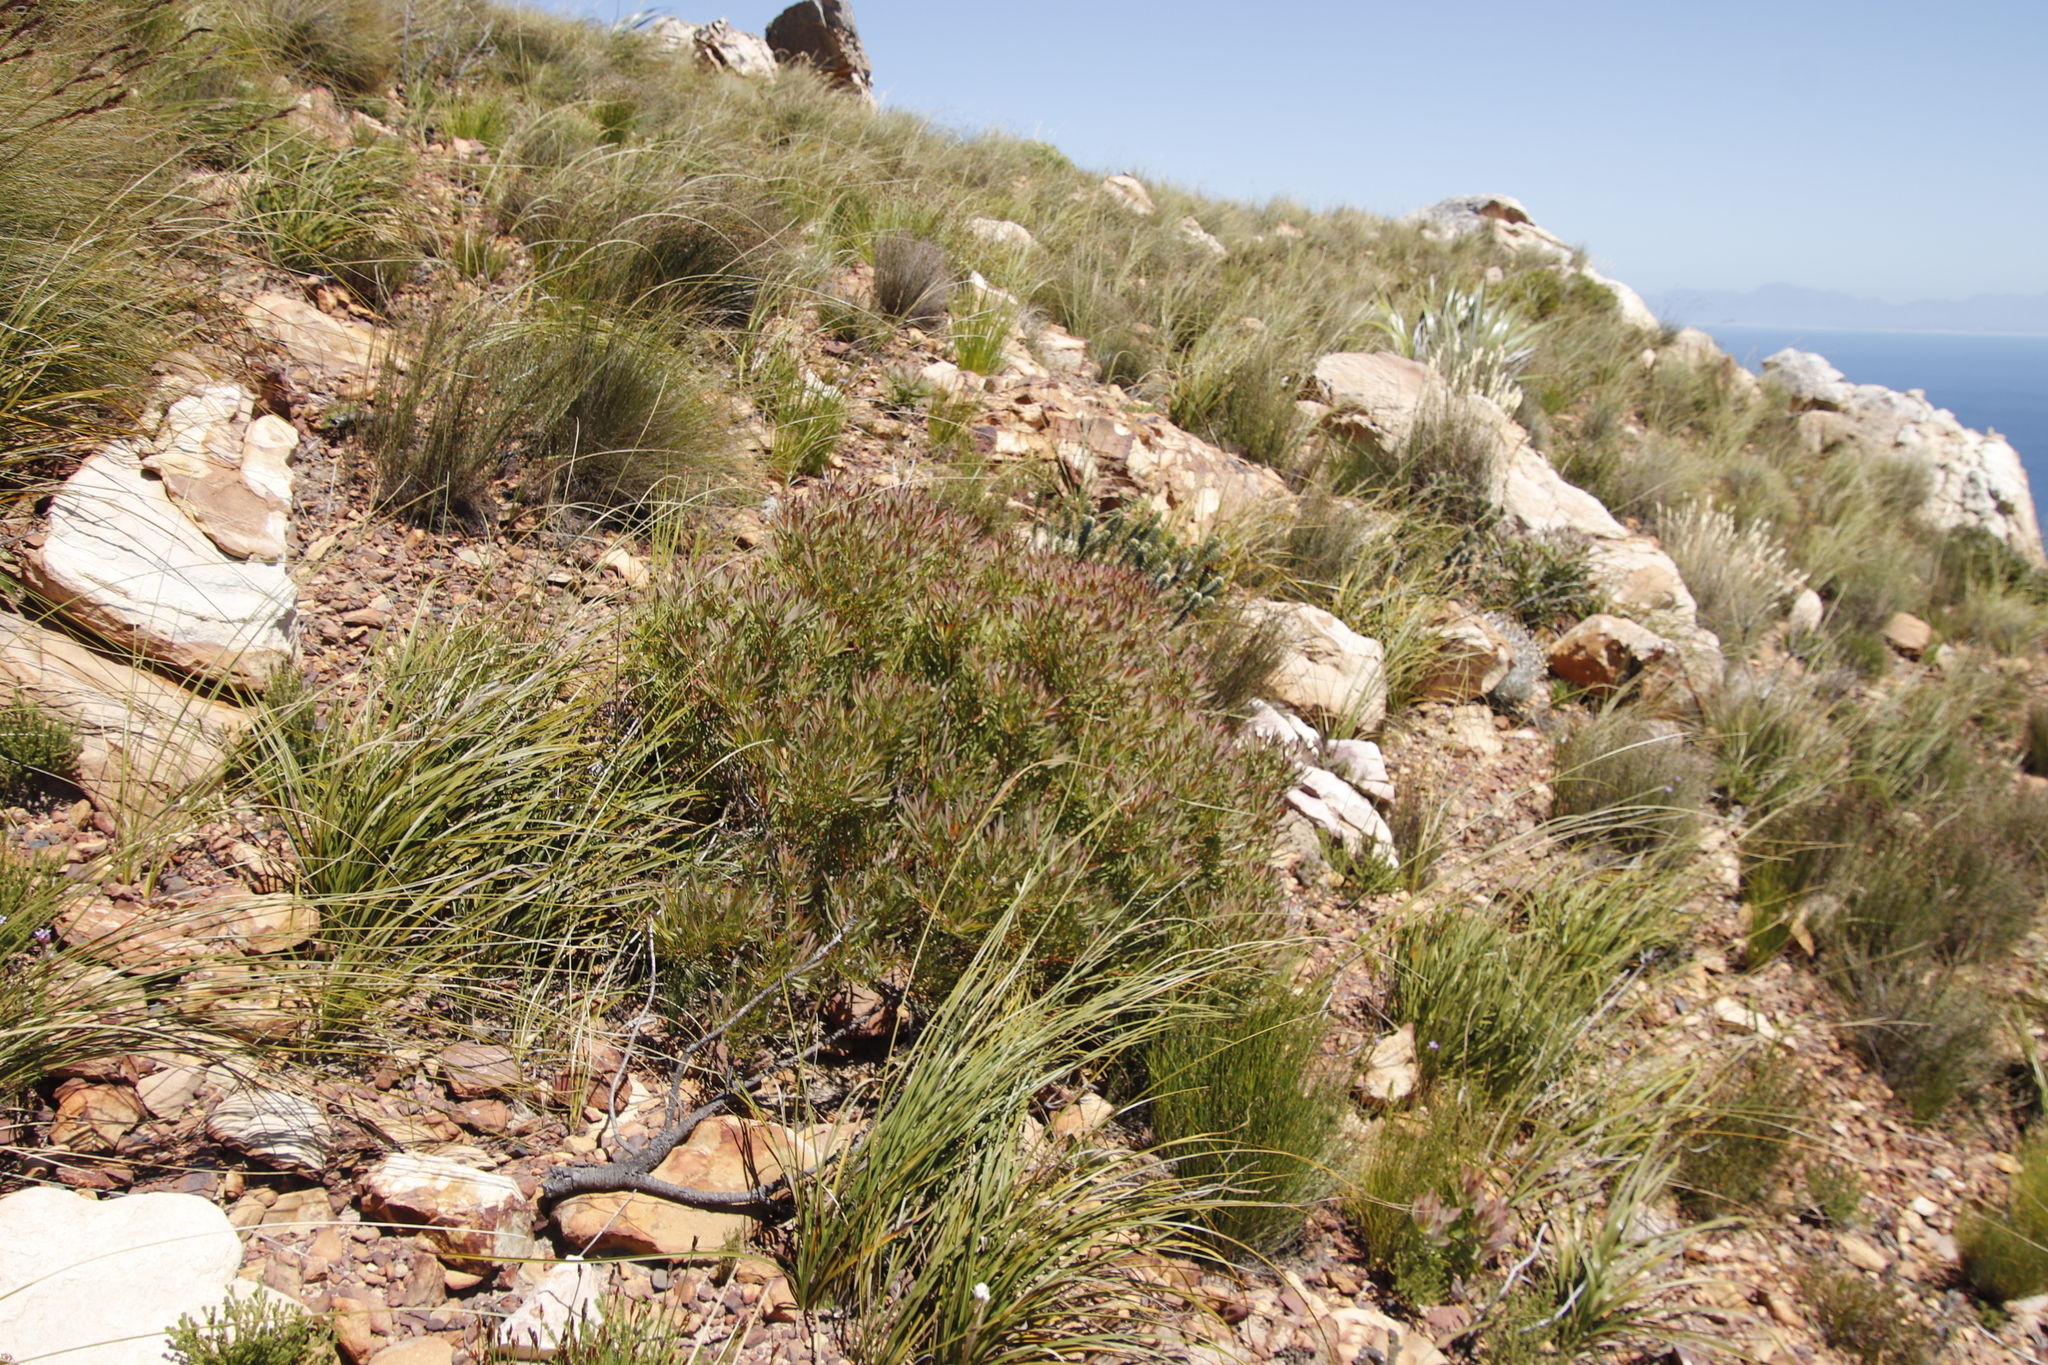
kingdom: Plantae
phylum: Tracheophyta
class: Magnoliopsida
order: Proteales
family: Proteaceae
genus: Leucadendron
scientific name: Leucadendron salignum
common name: Common sunshine conebush
